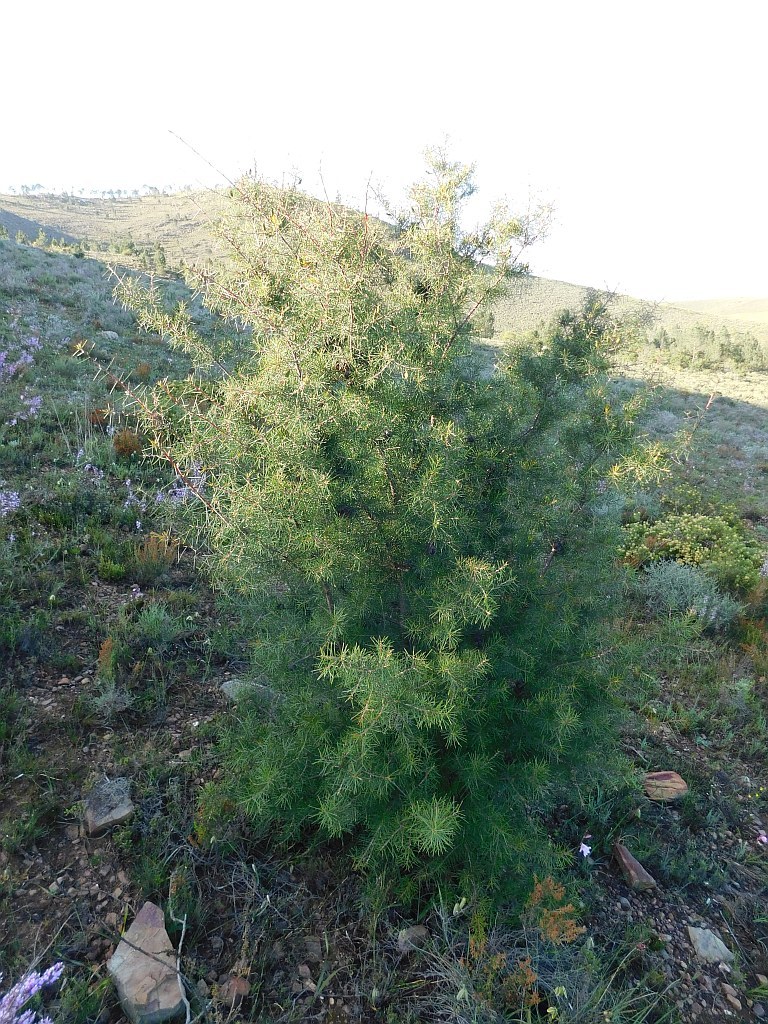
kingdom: Plantae
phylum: Tracheophyta
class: Magnoliopsida
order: Proteales
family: Proteaceae
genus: Hakea
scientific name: Hakea sericea
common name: Needle bush
